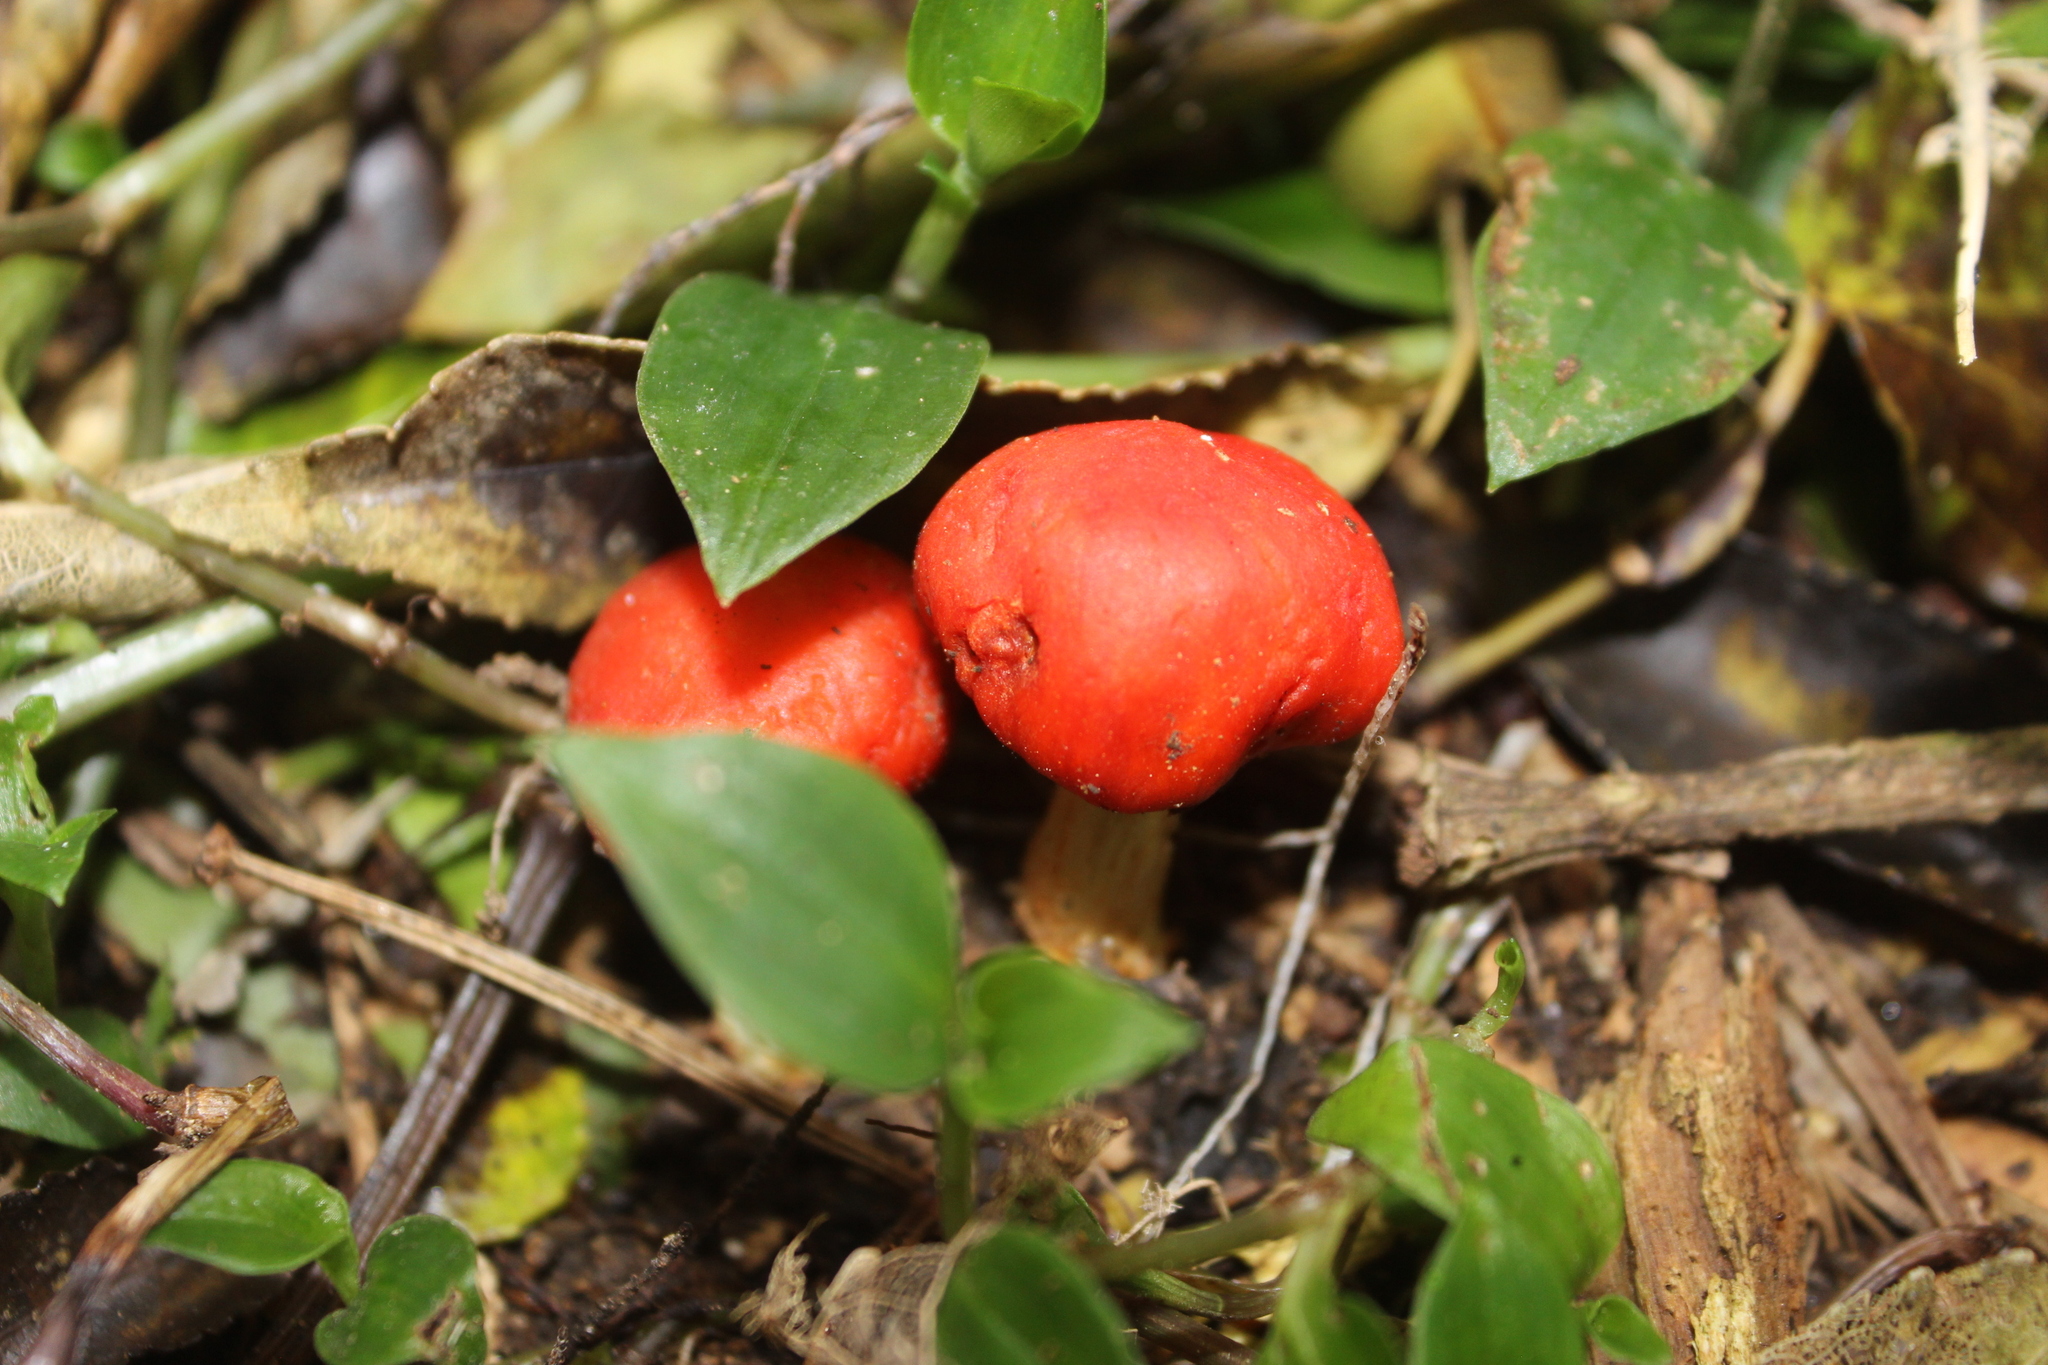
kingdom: Fungi
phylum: Basidiomycota
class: Agaricomycetes
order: Agaricales
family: Strophariaceae
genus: Leratiomyces
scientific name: Leratiomyces erythrocephalus
